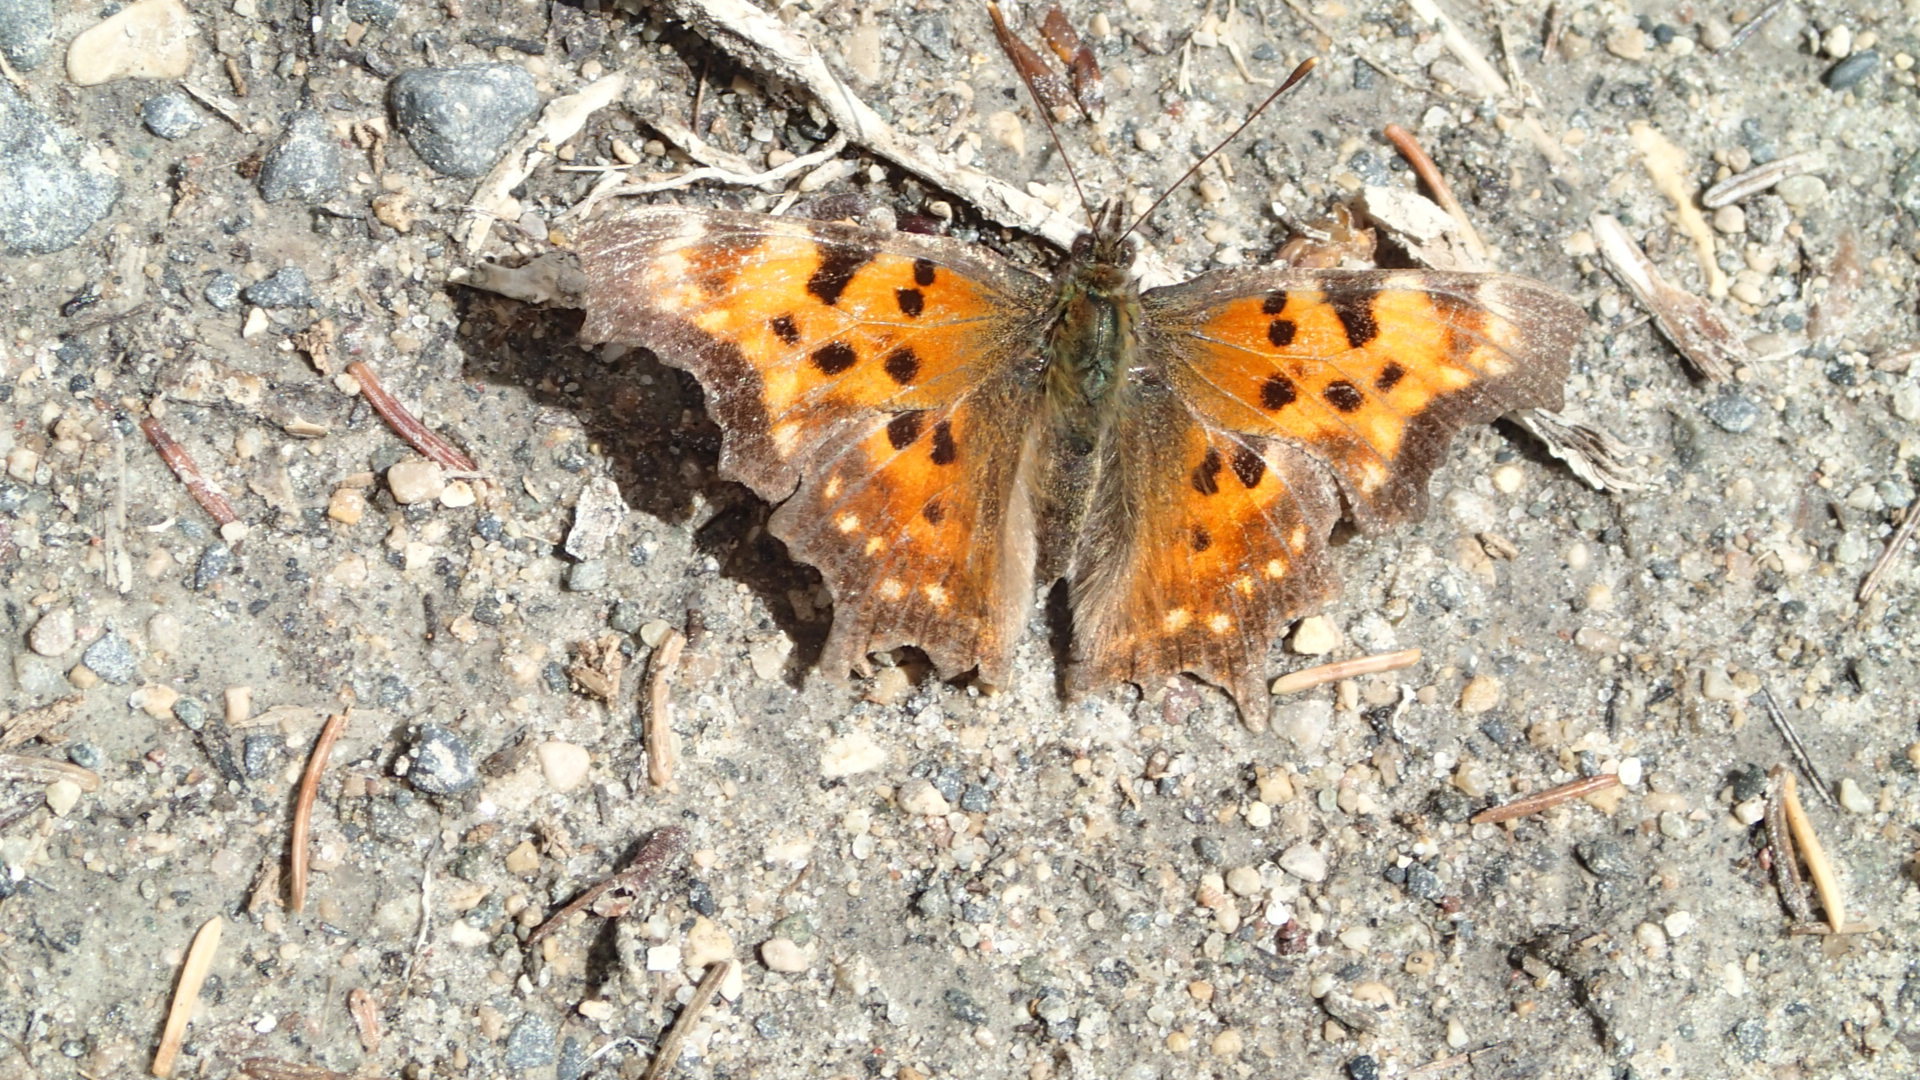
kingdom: Animalia
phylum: Arthropoda
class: Insecta
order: Lepidoptera
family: Nymphalidae
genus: Polygonia
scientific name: Polygonia faunus
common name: Green comma
